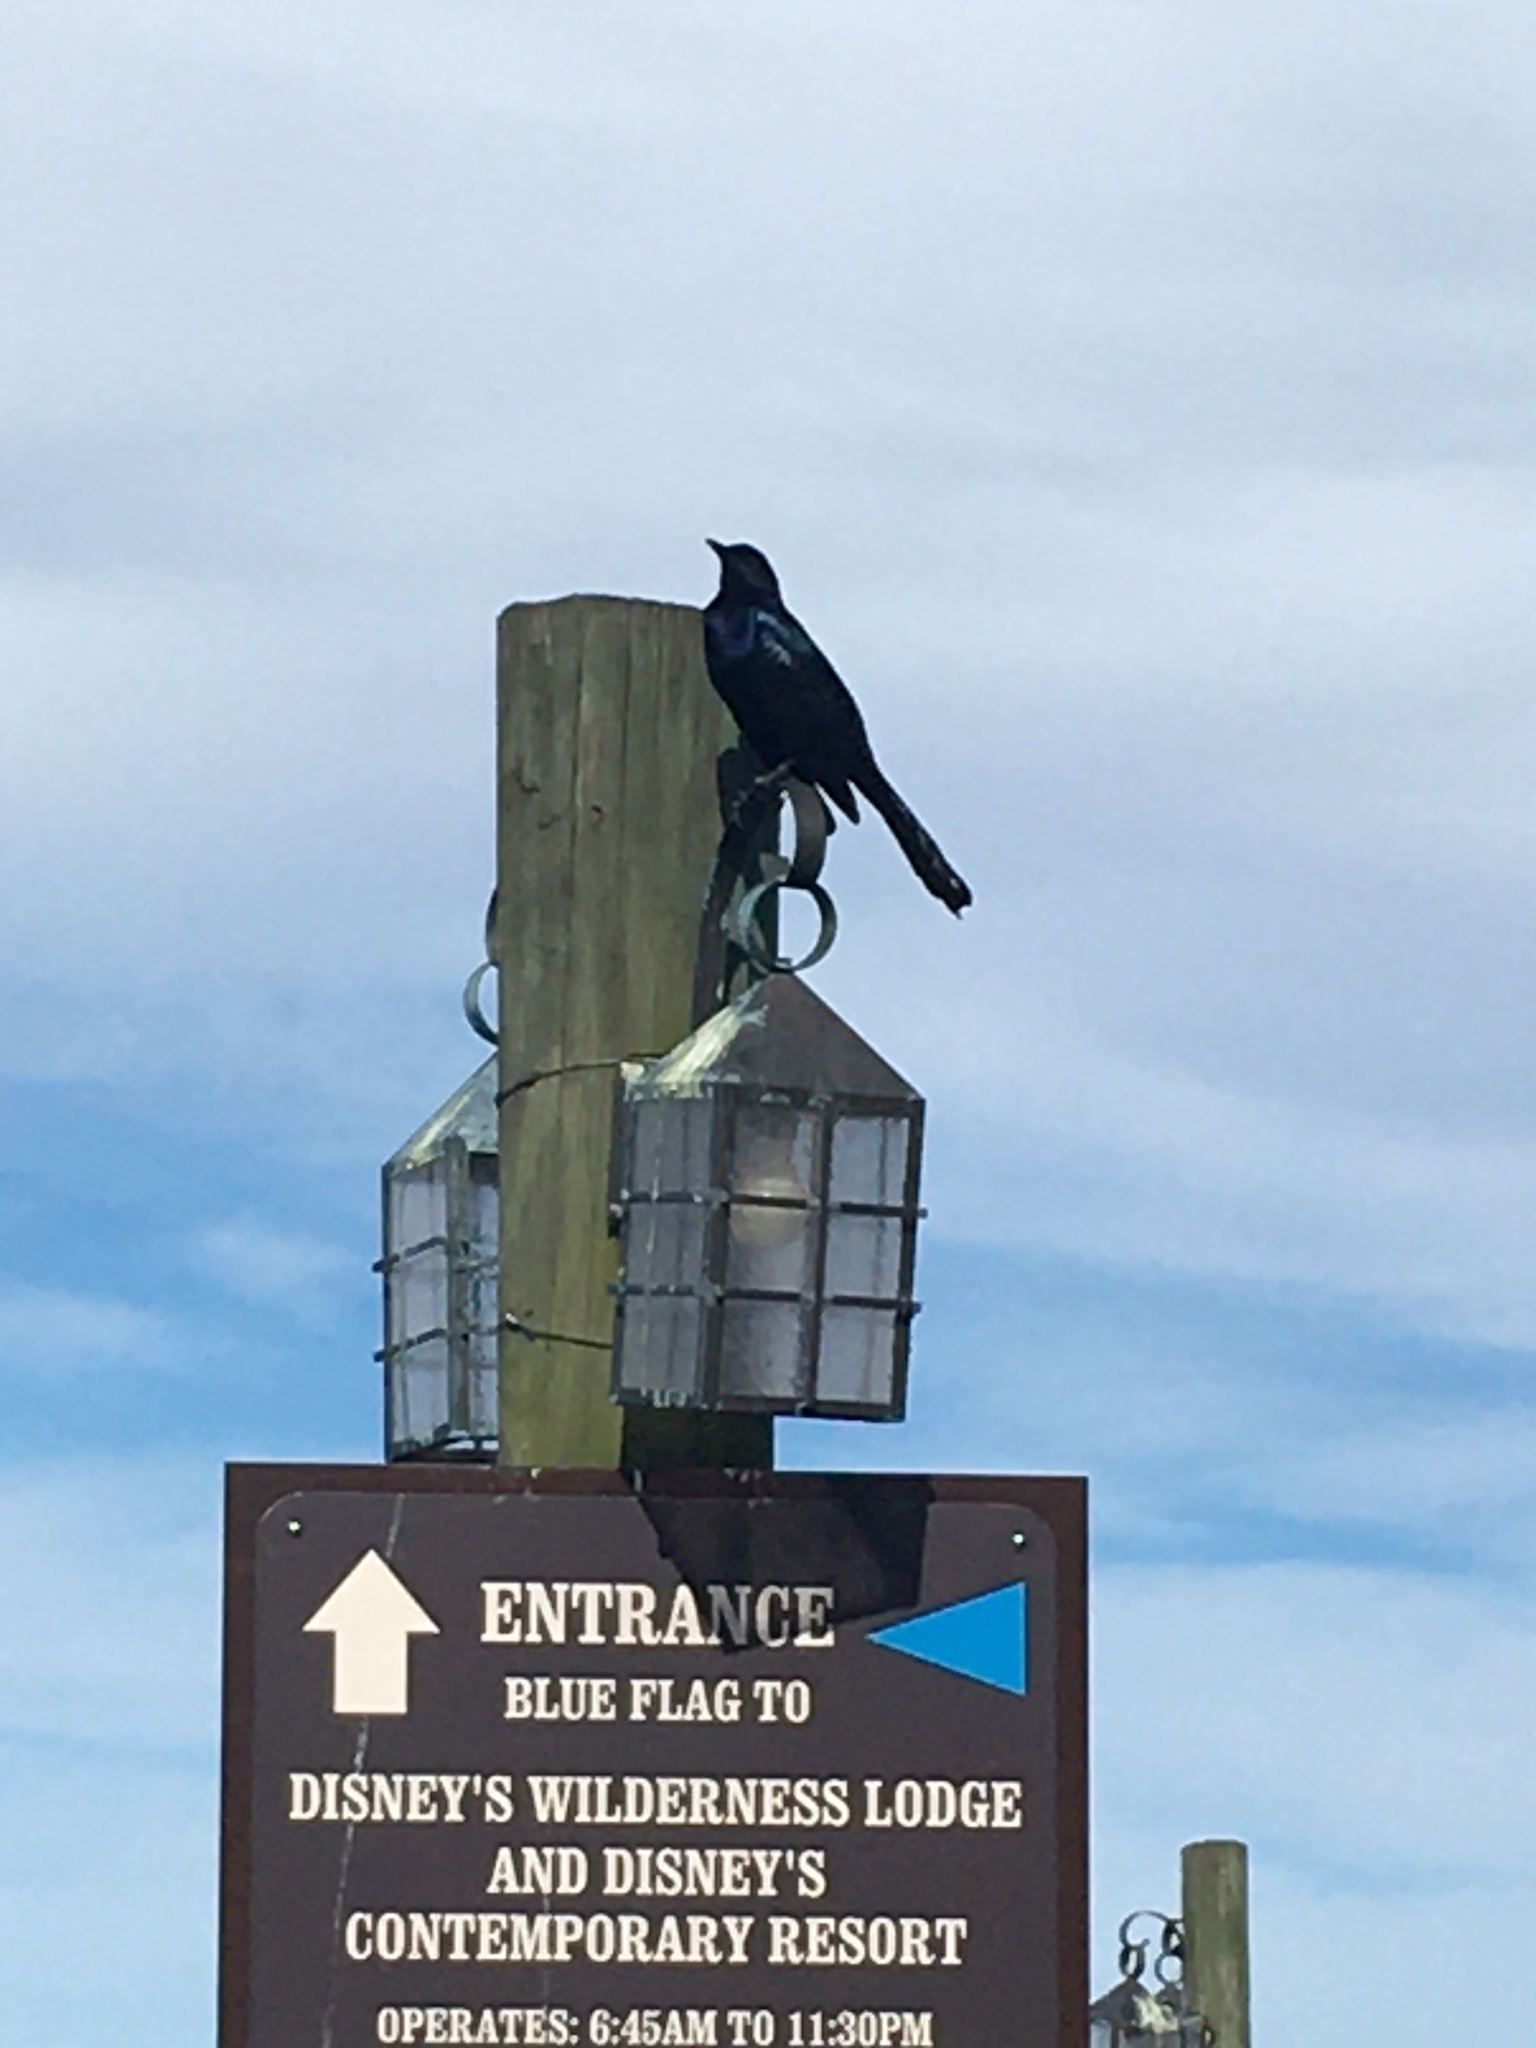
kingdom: Animalia
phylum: Chordata
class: Aves
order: Passeriformes
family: Icteridae
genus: Quiscalus
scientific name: Quiscalus major
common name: Boat-tailed grackle
